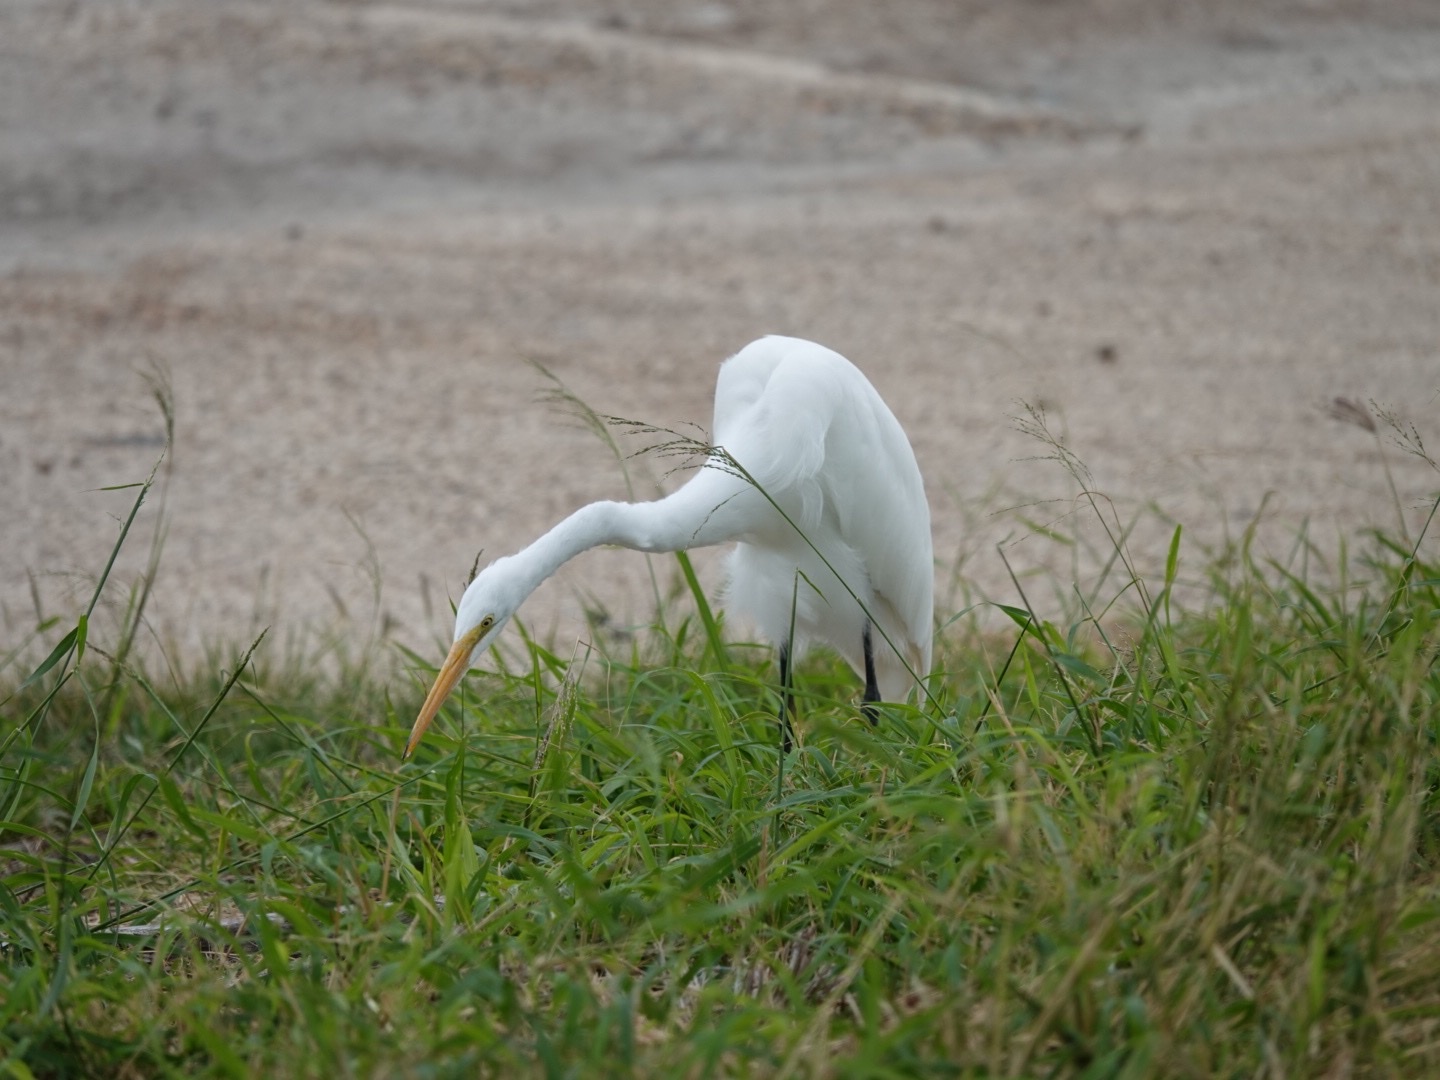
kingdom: Animalia
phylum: Chordata
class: Aves
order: Pelecaniformes
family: Ardeidae
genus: Ardea
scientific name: Ardea alba
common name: Great egret
